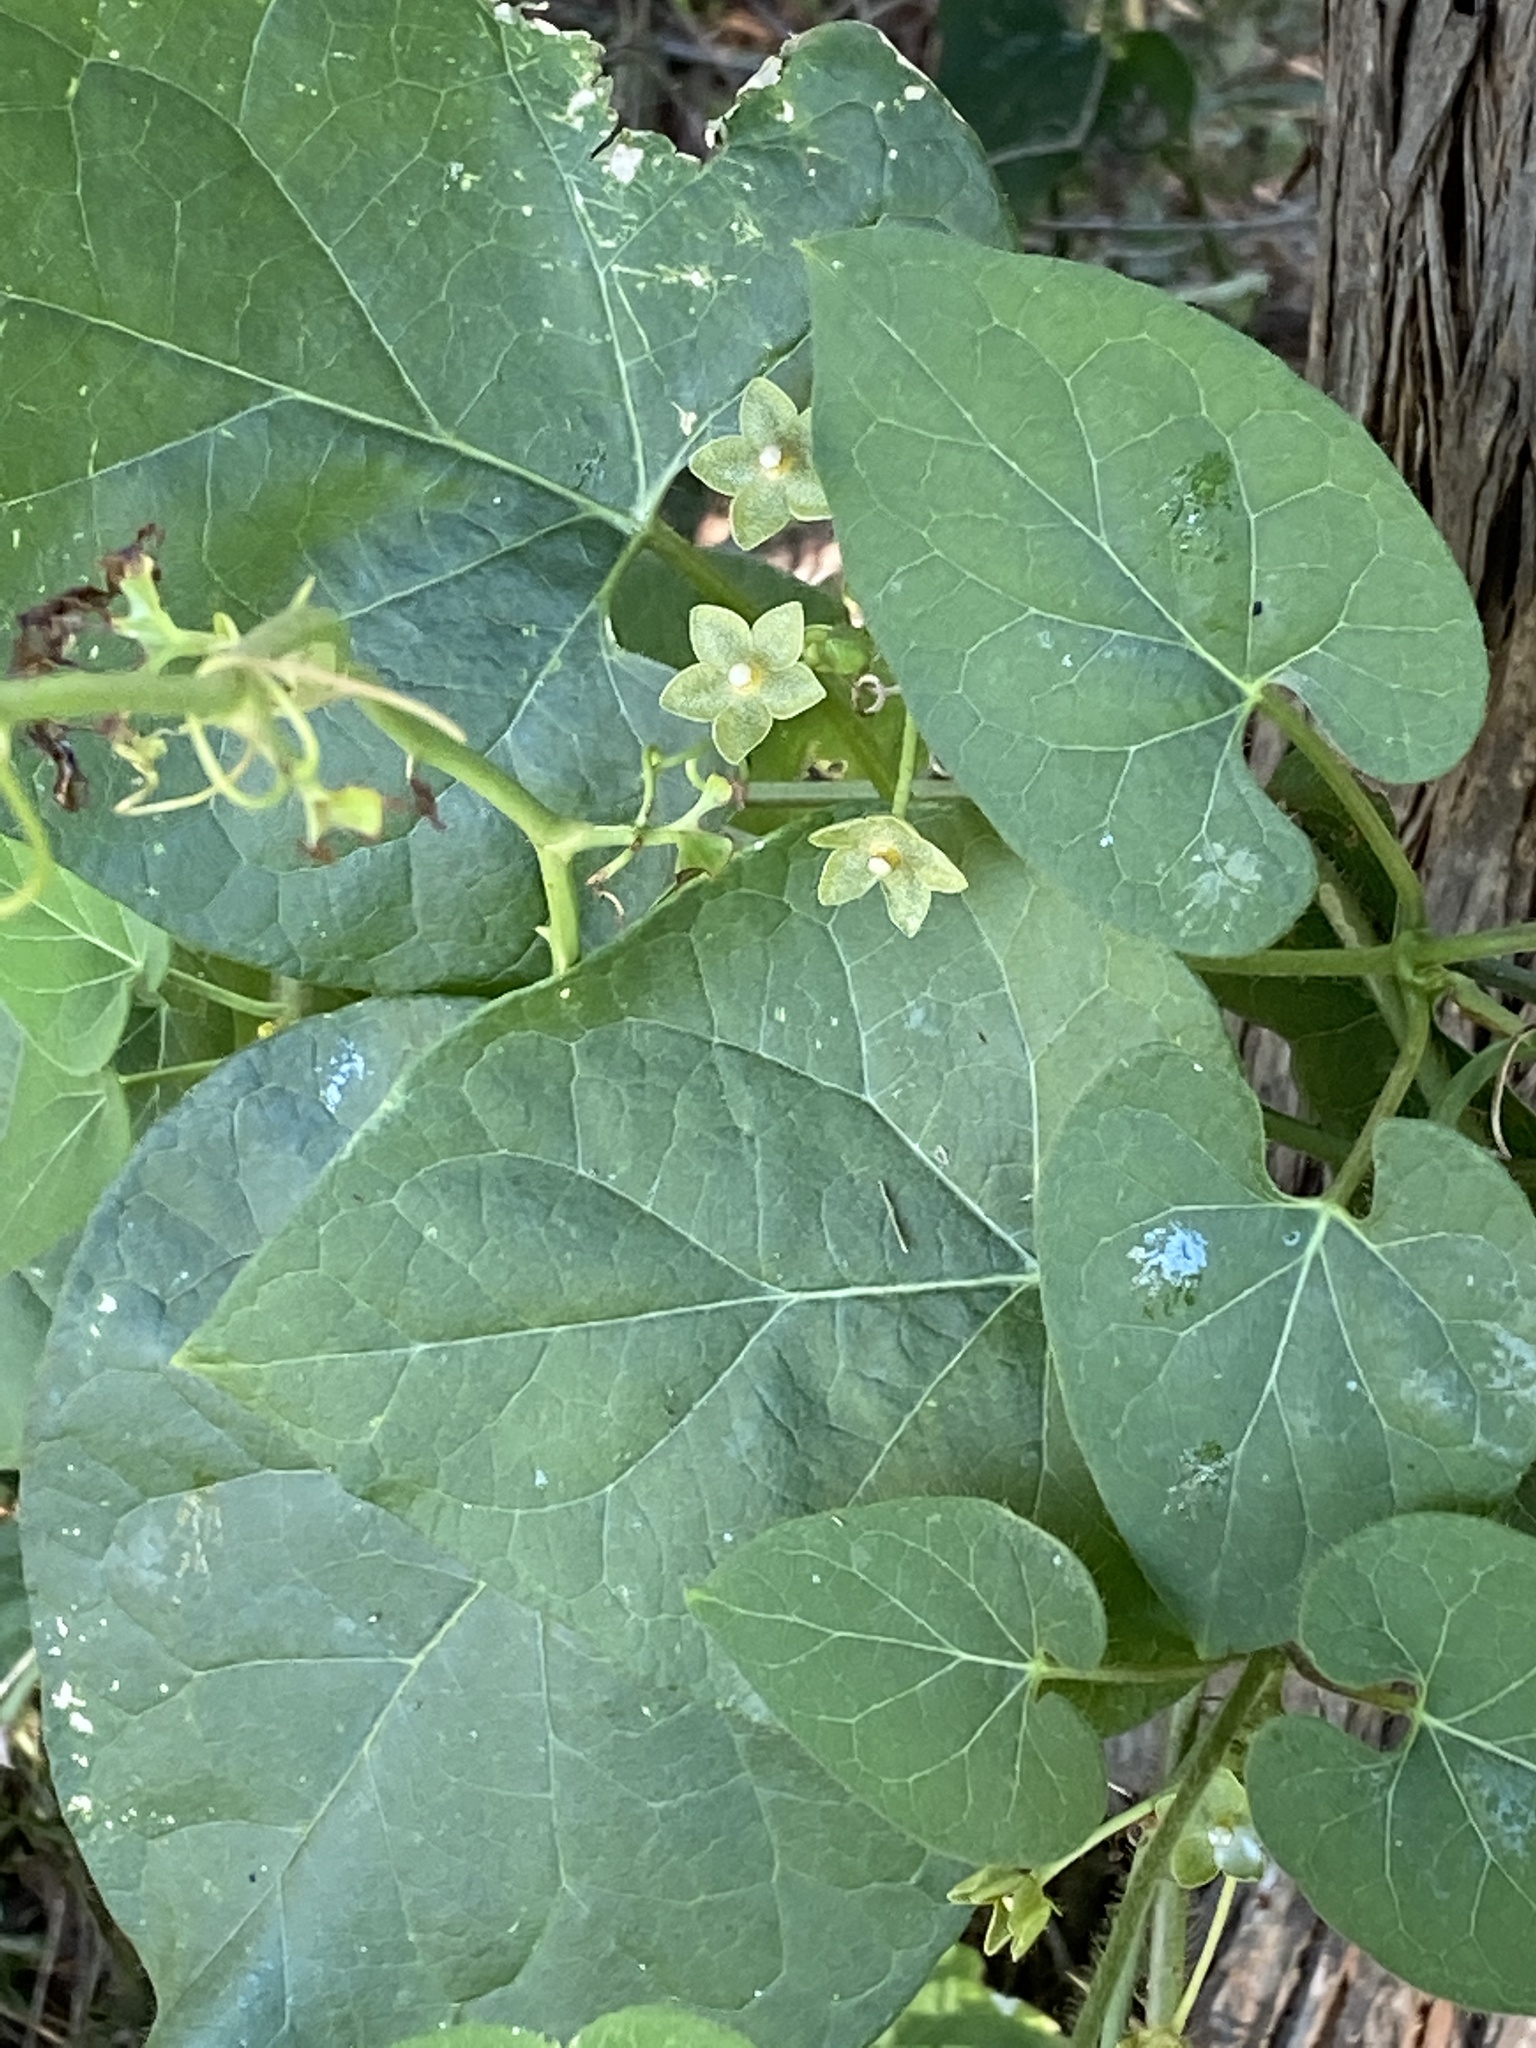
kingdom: Plantae
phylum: Tracheophyta
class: Magnoliopsida
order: Gentianales
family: Apocynaceae
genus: Dictyanthus
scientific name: Dictyanthus reticulatus
